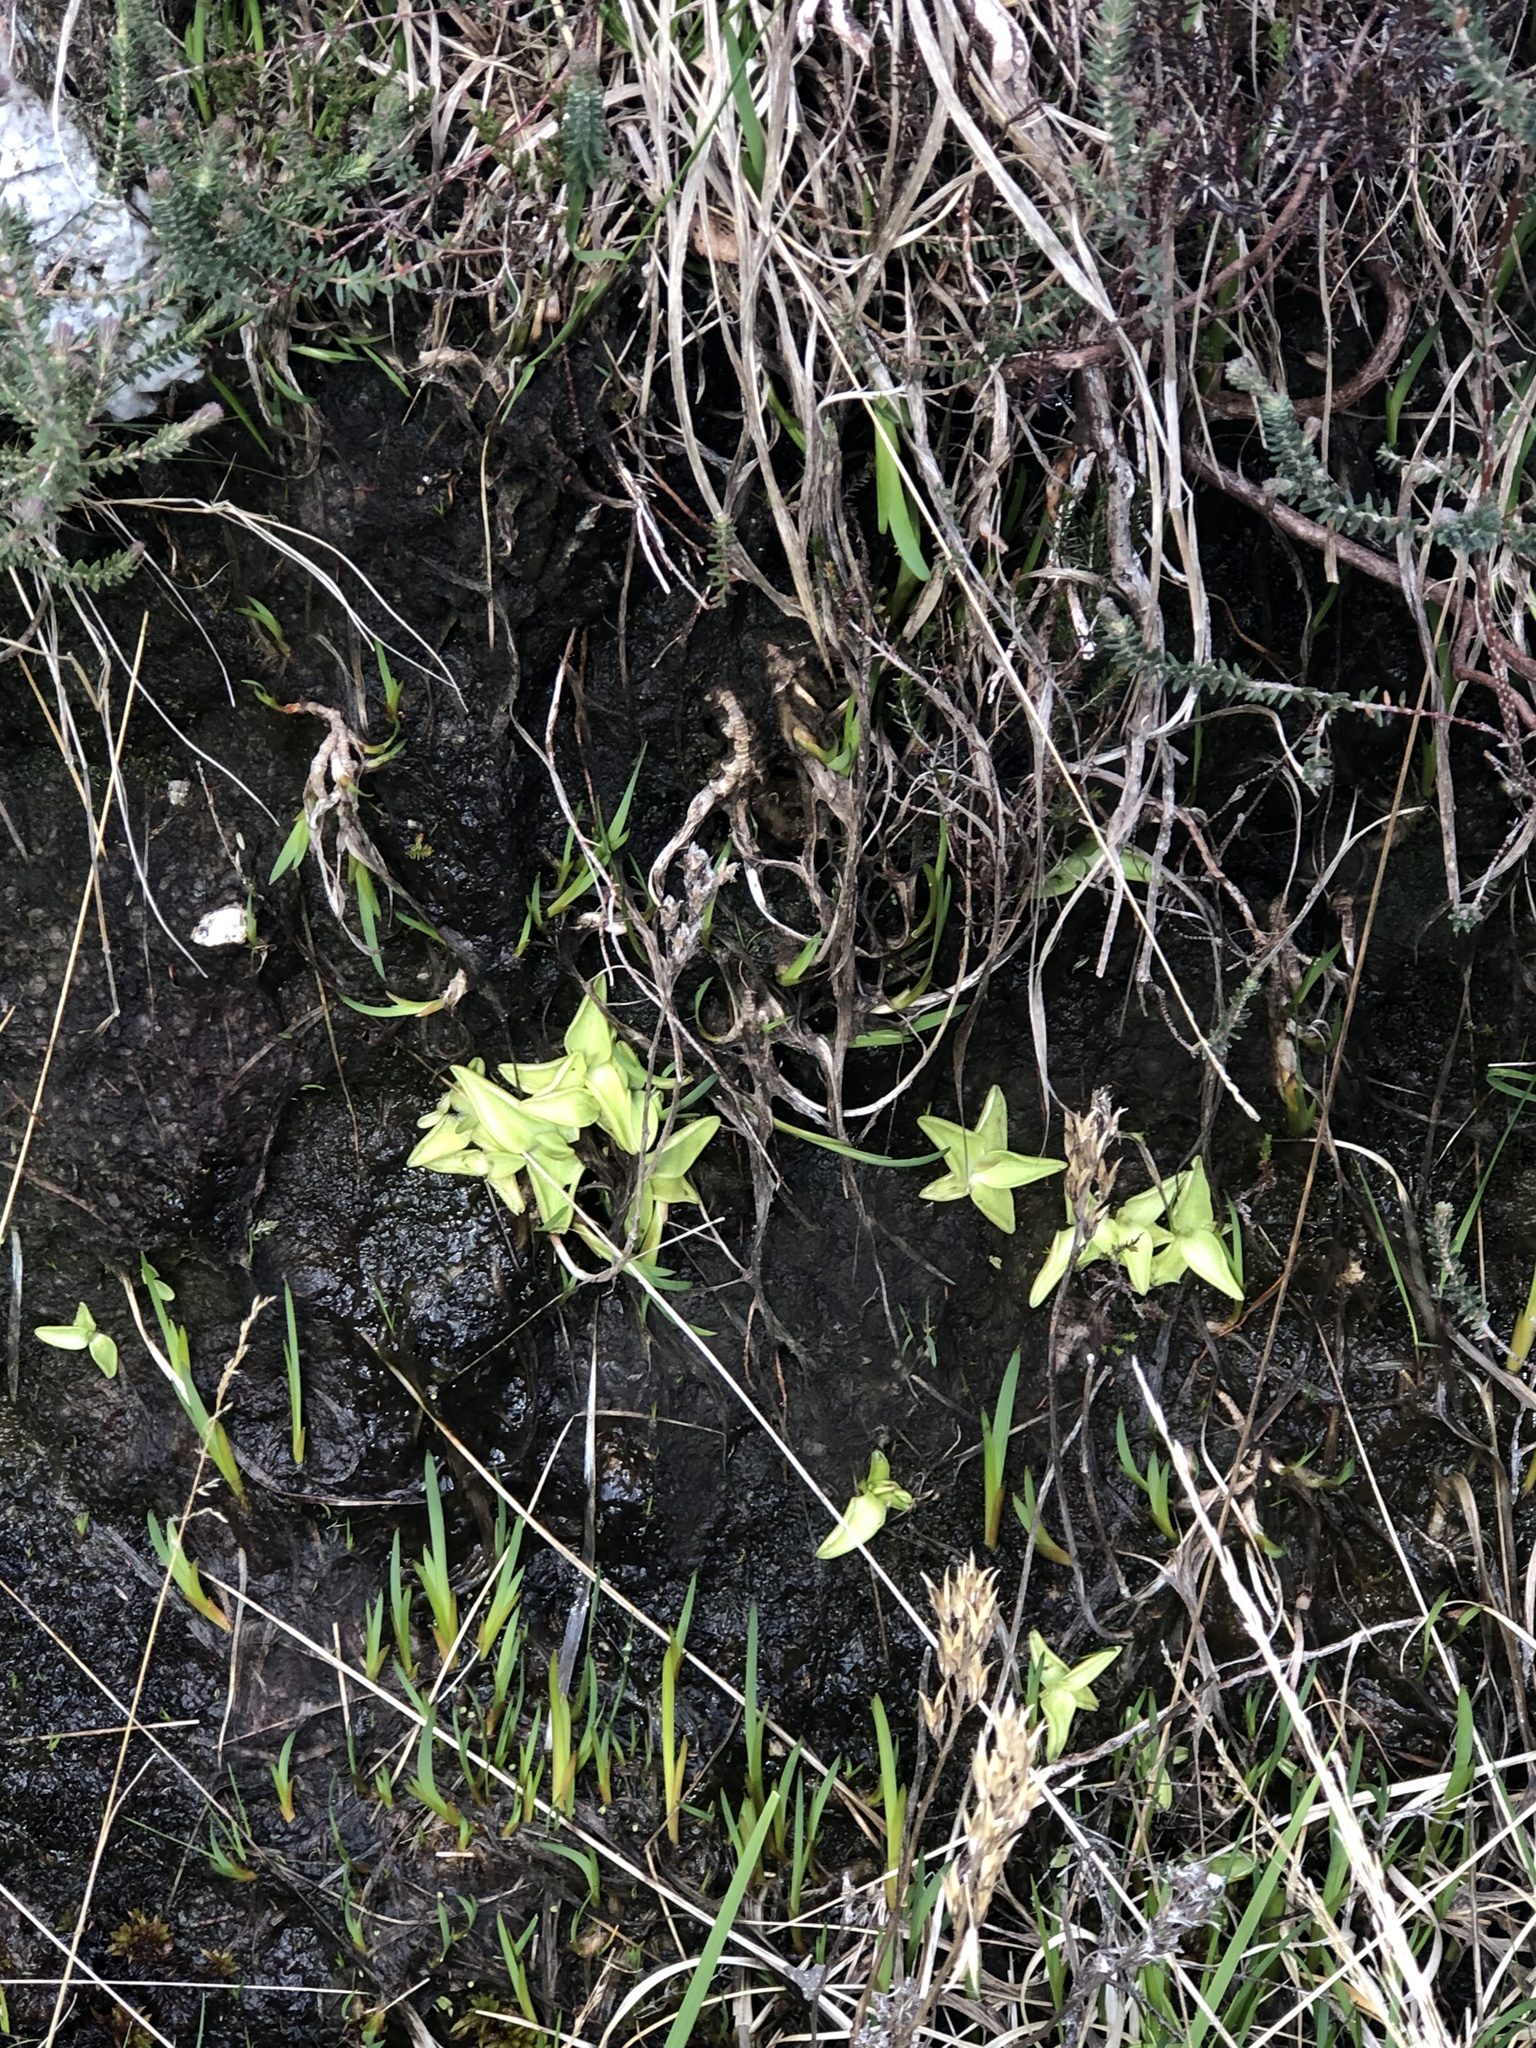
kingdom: Plantae
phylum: Tracheophyta
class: Magnoliopsida
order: Lamiales
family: Lentibulariaceae
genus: Pinguicula
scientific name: Pinguicula vulgaris
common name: Common butterwort
